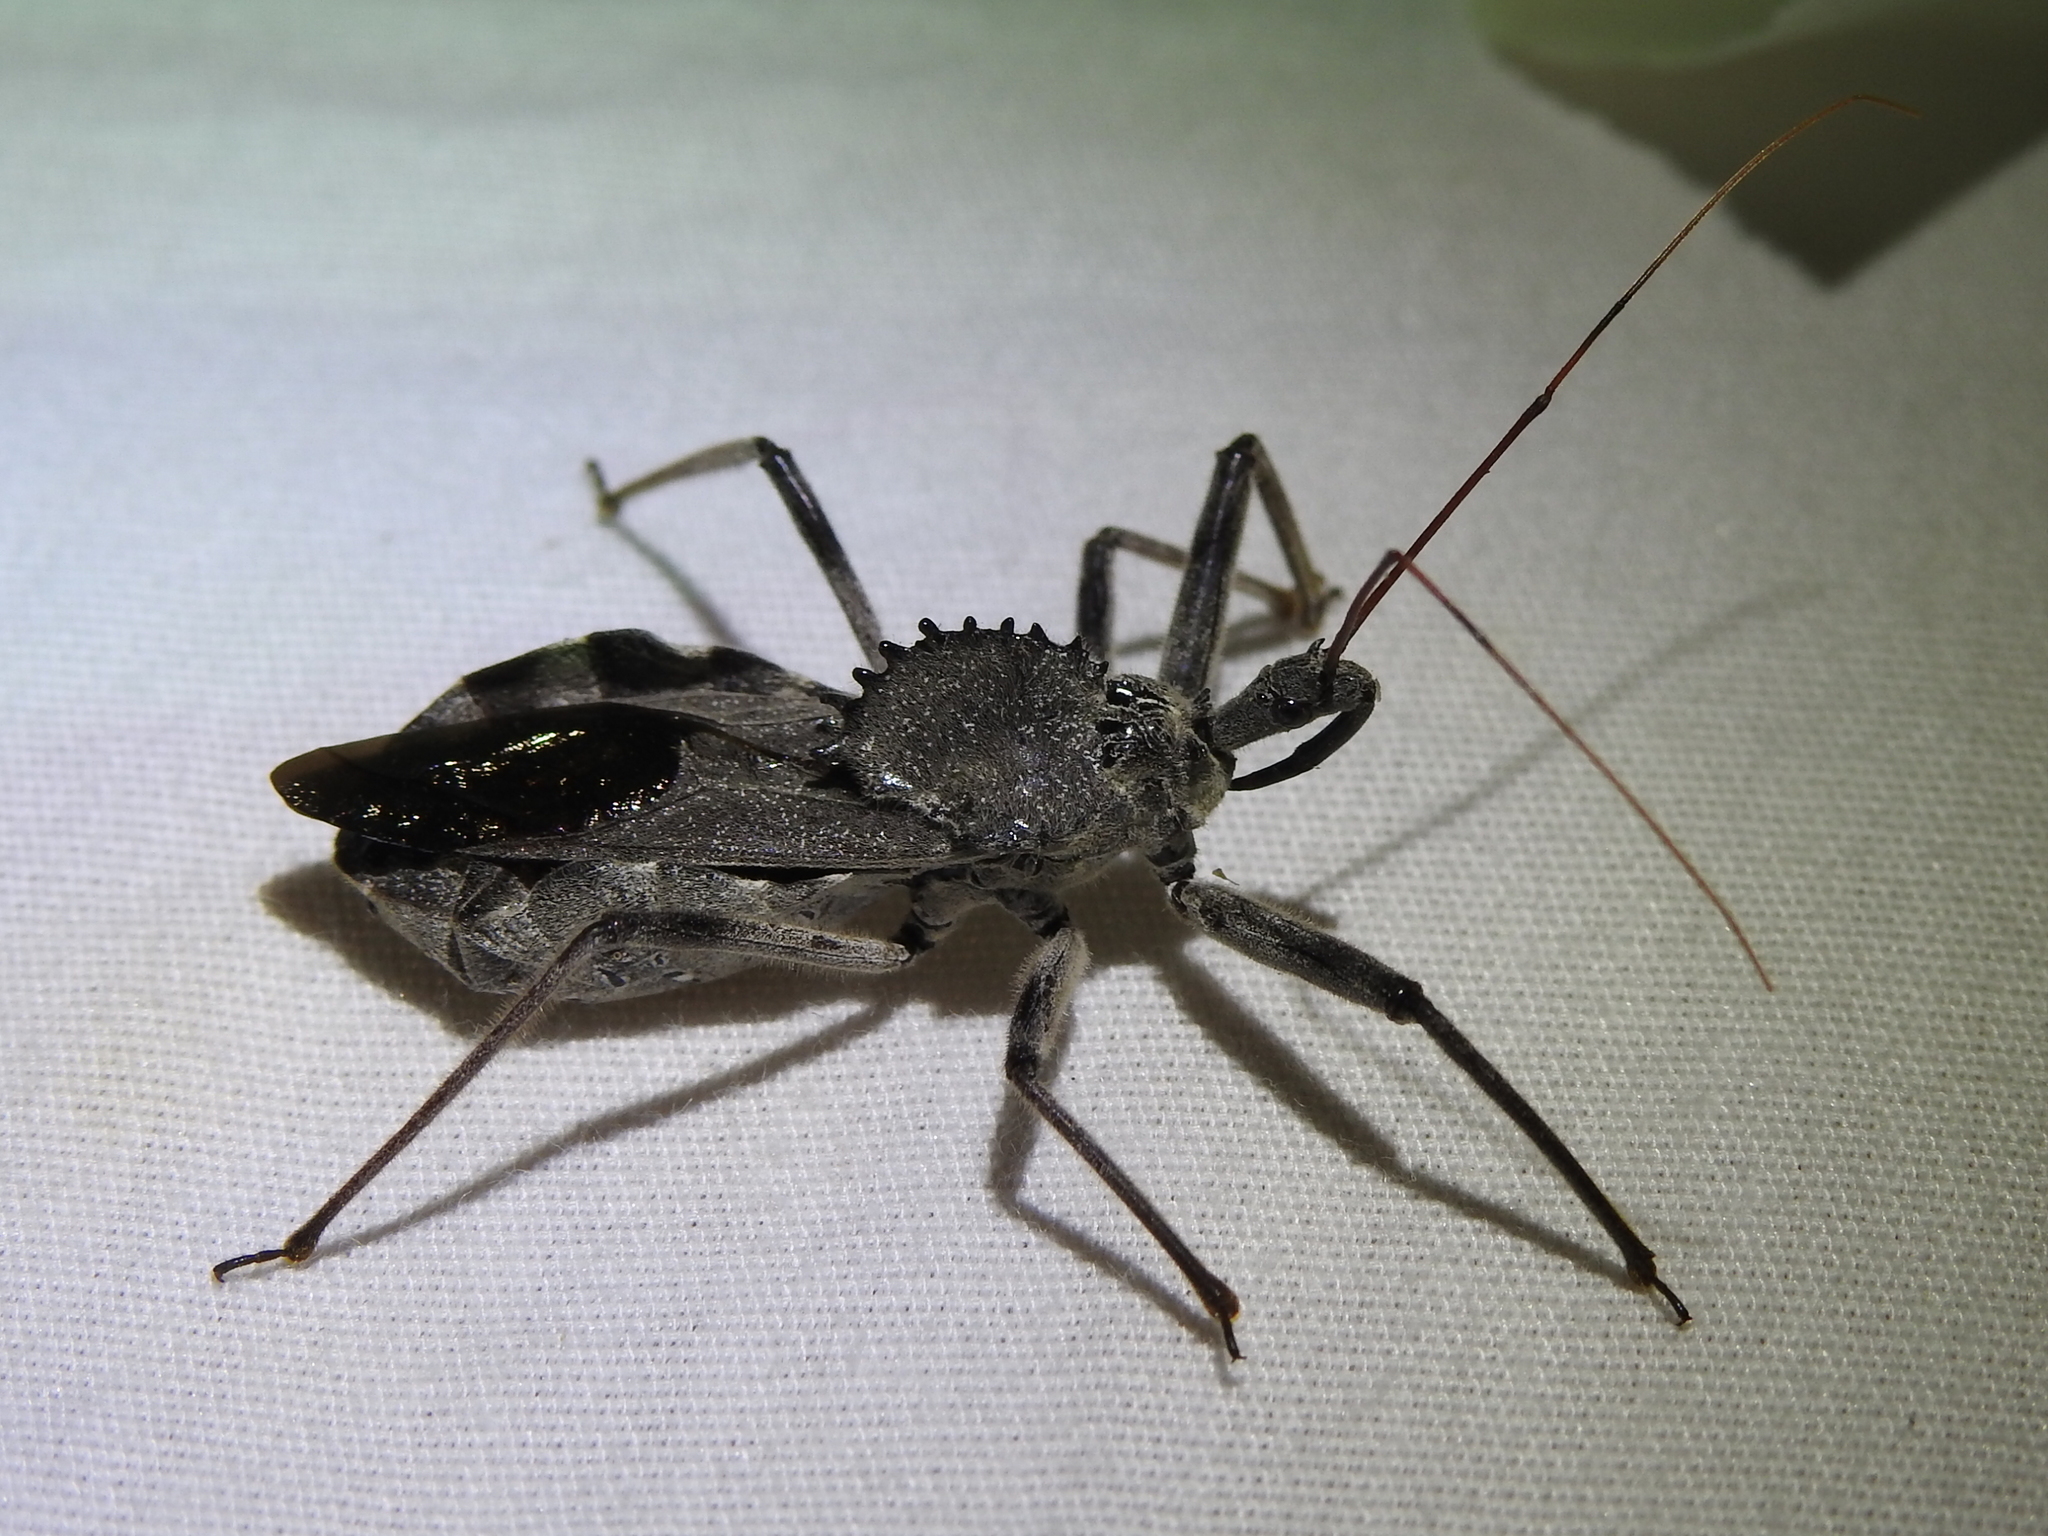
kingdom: Animalia
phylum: Arthropoda
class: Insecta
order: Hemiptera
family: Reduviidae
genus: Arilus
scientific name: Arilus cristatus
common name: North american wheel bug
